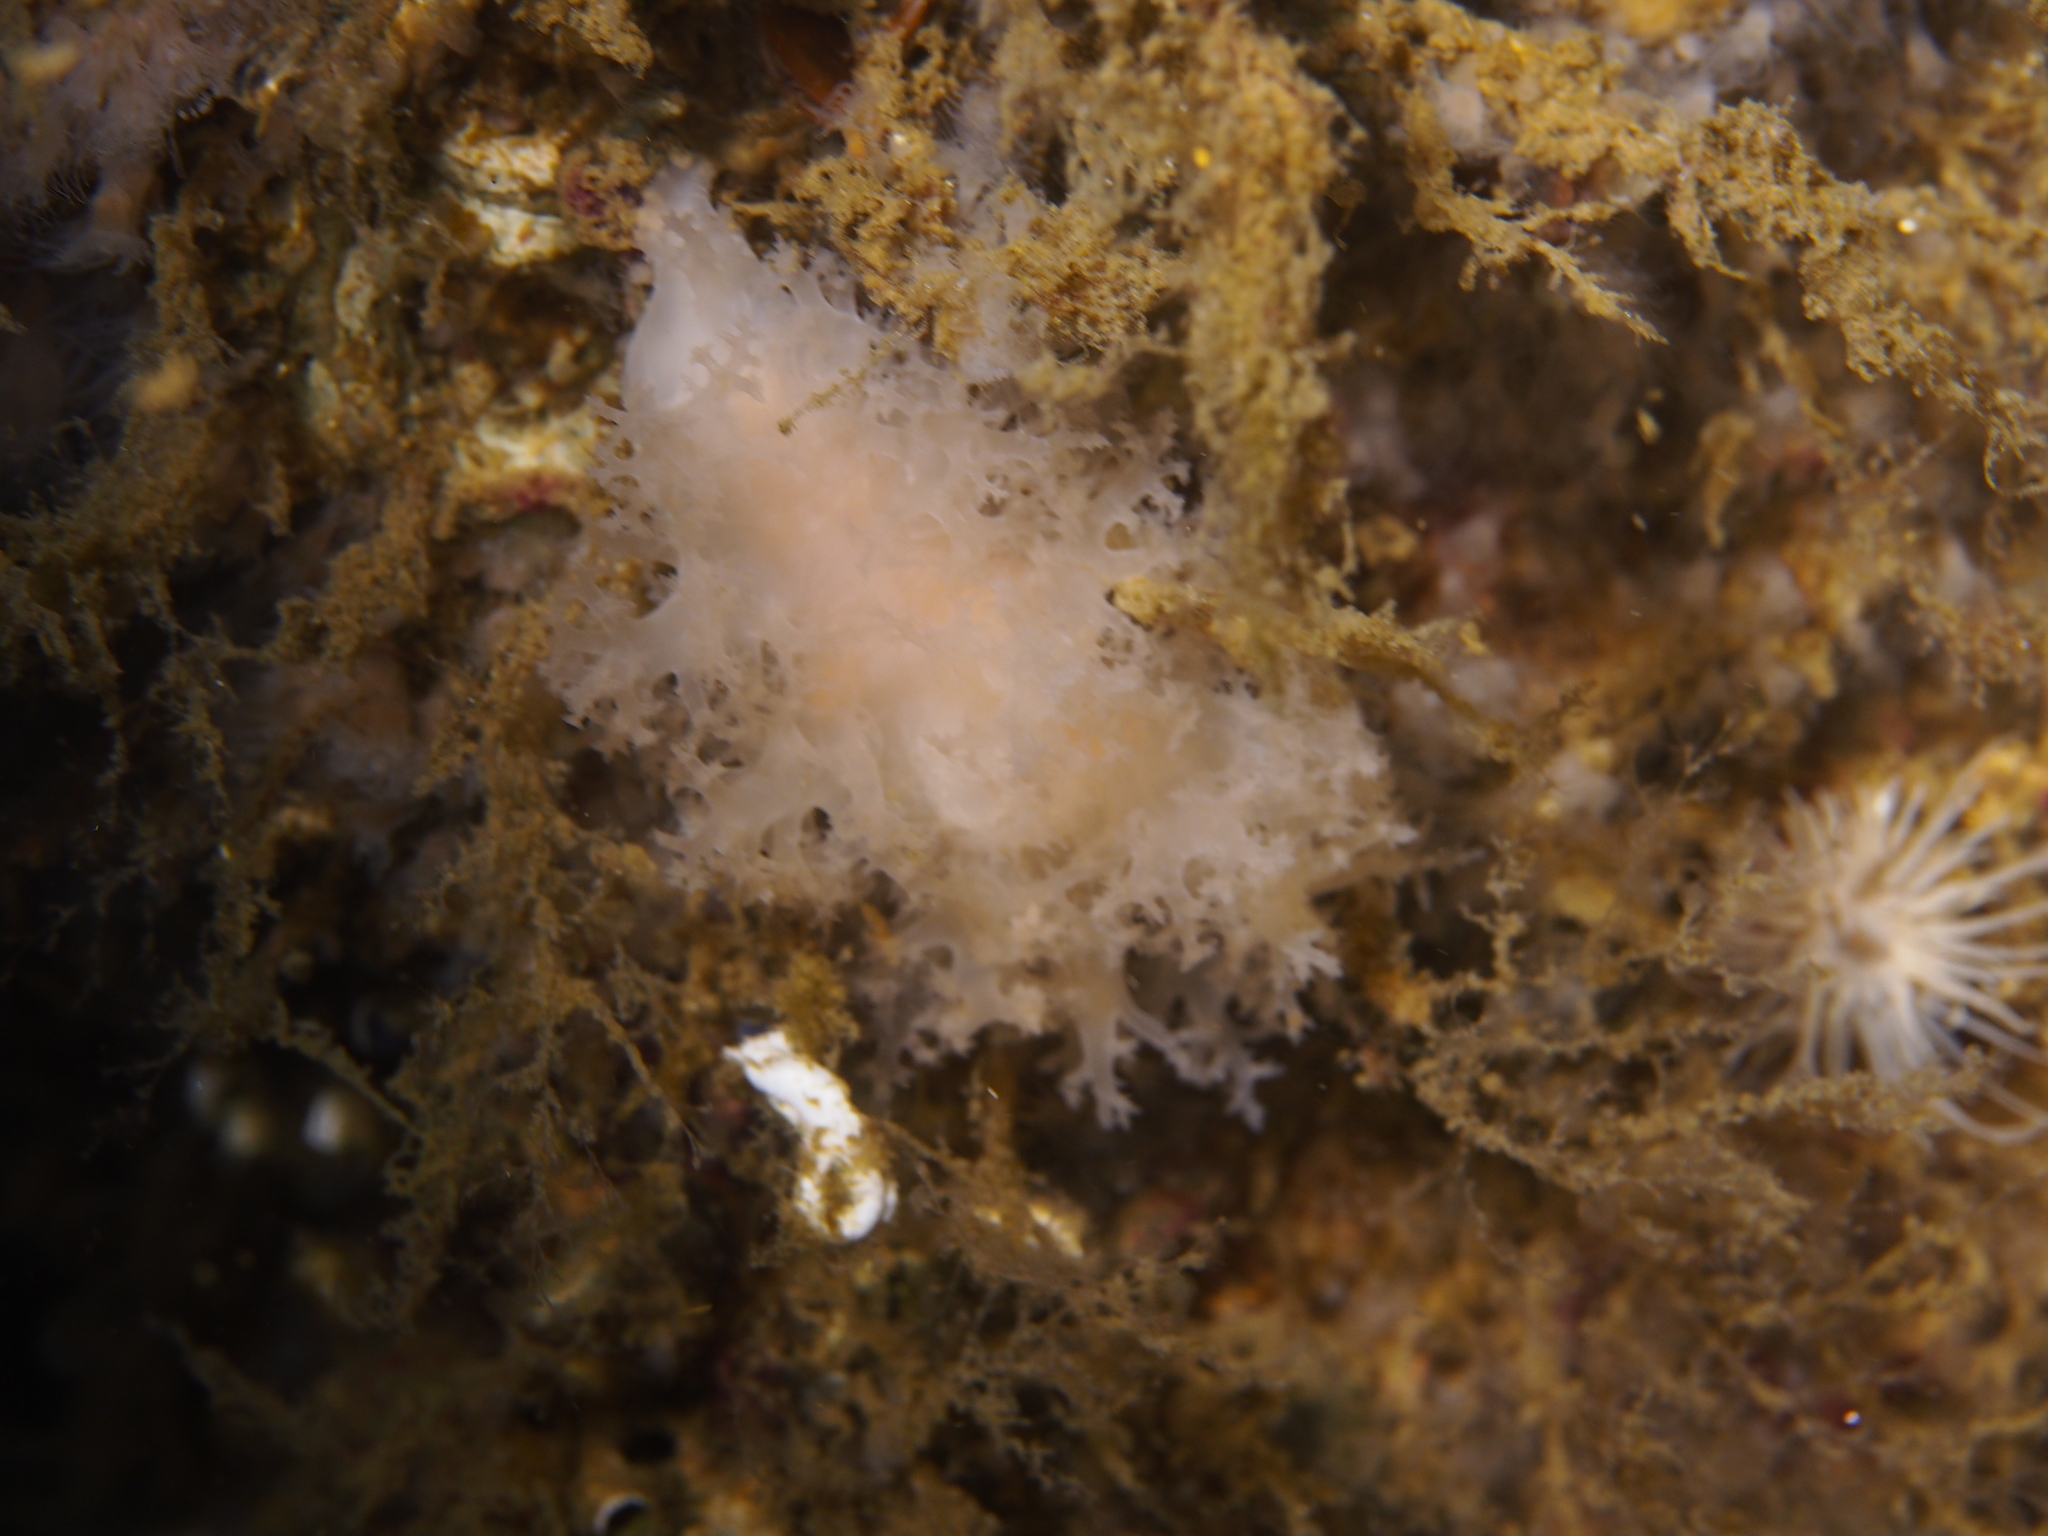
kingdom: Animalia
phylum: Mollusca
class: Gastropoda
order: Nudibranchia
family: Dendronotidae
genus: Dendronotus
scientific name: Dendronotus lacteus
